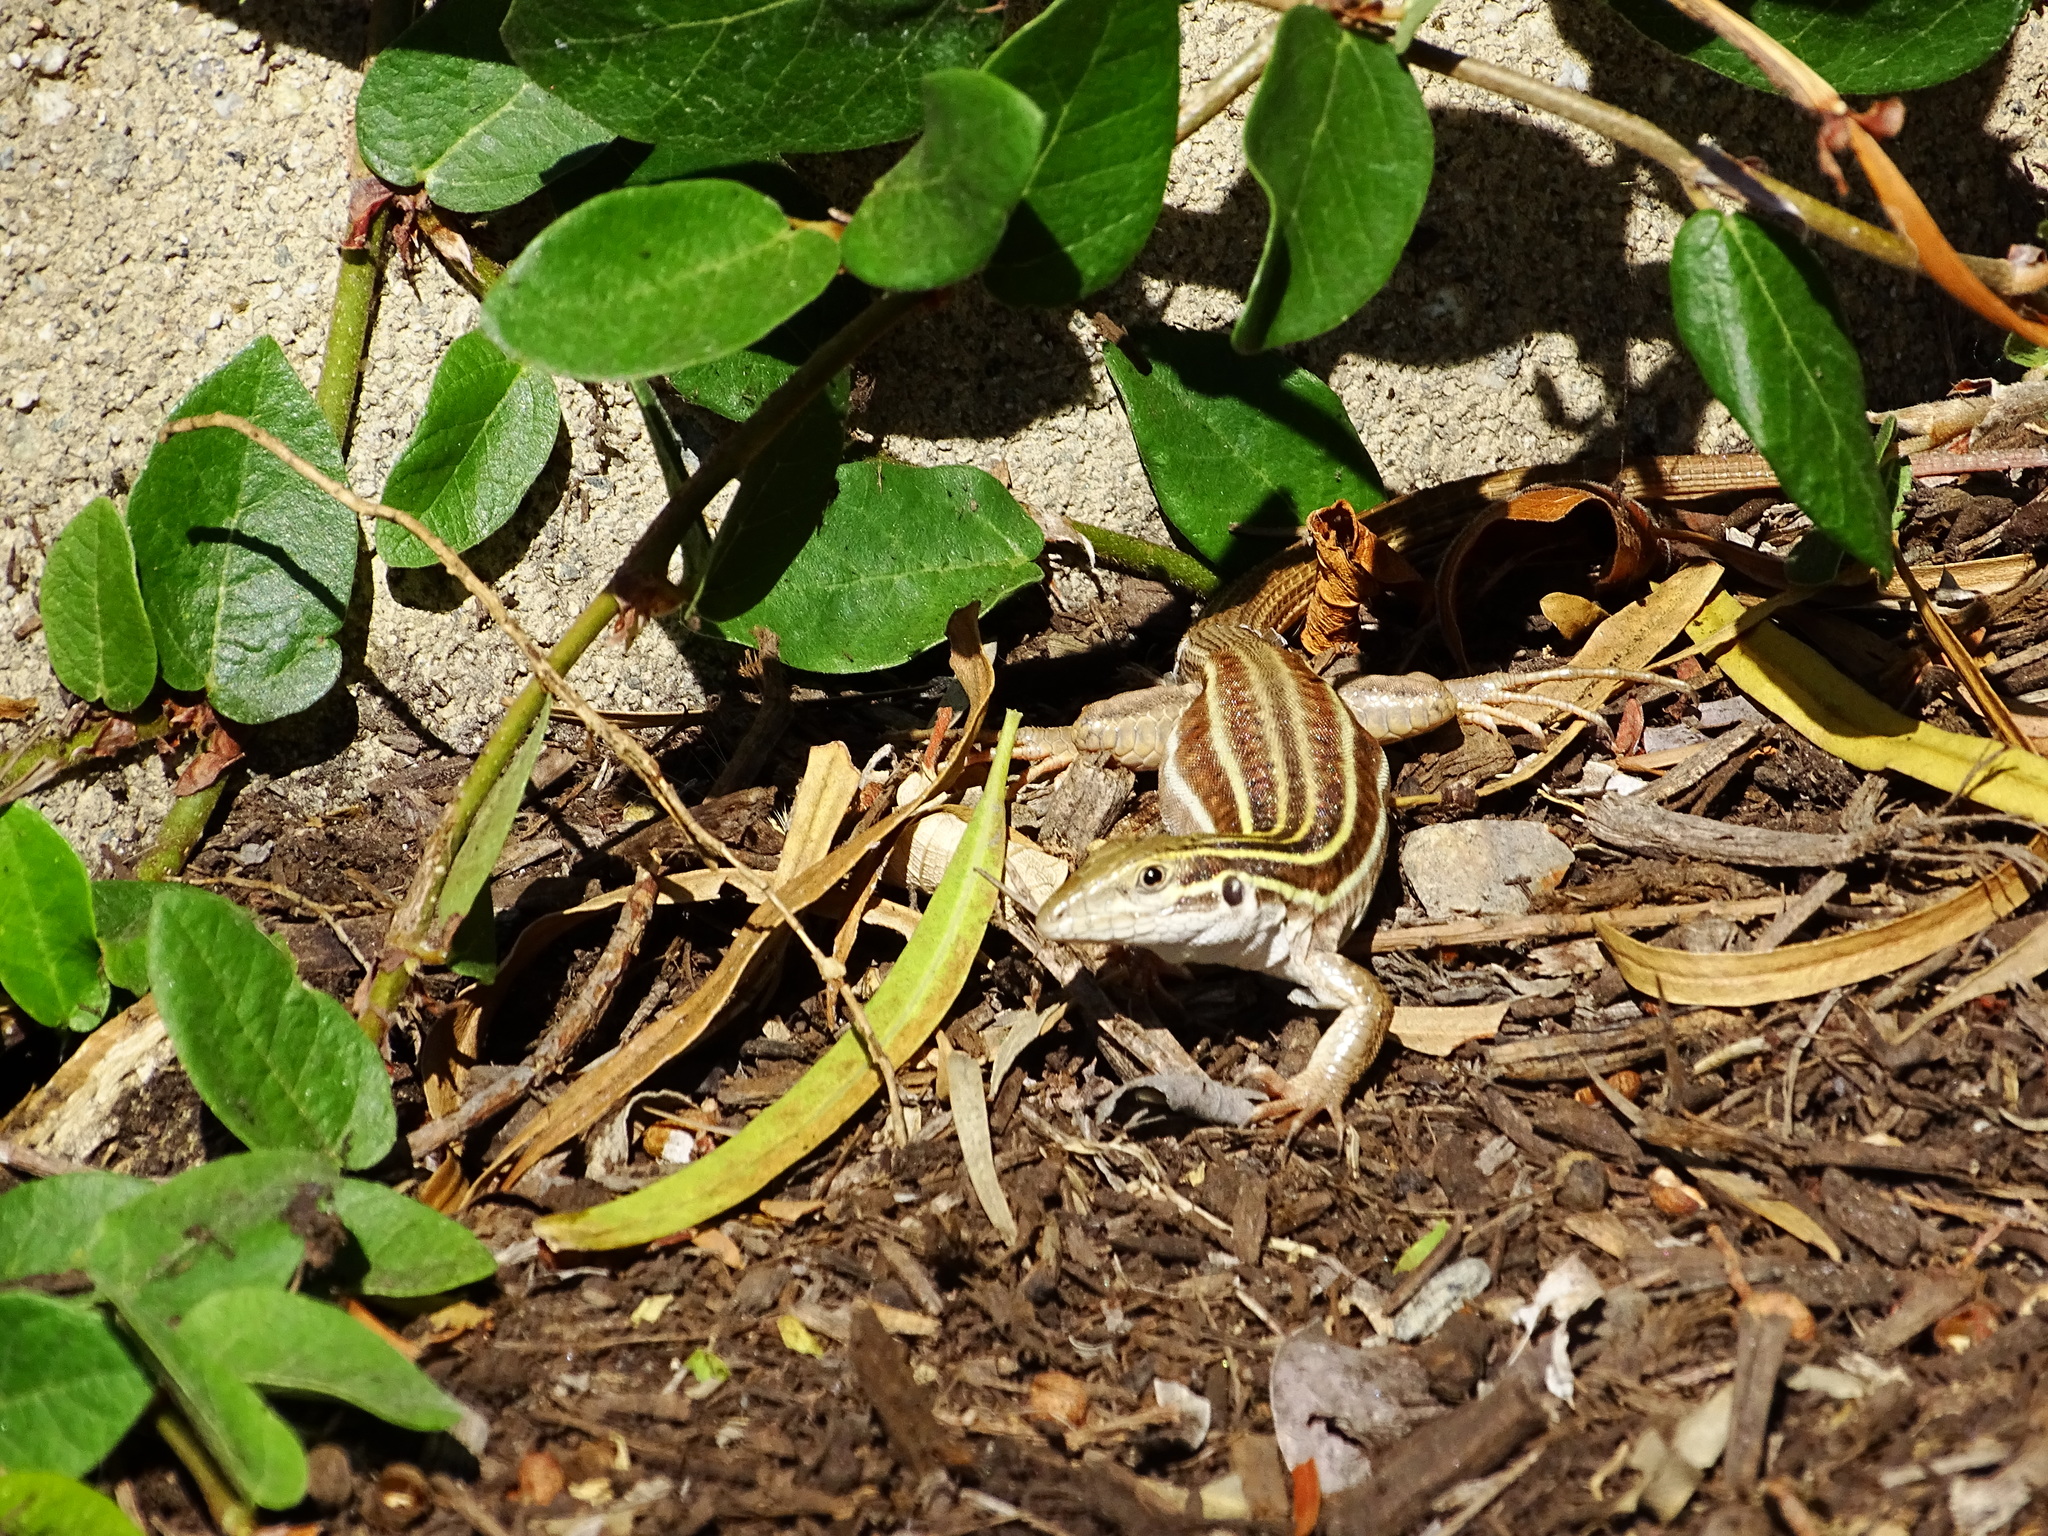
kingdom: Animalia
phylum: Chordata
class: Squamata
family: Teiidae
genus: Aspidoscelis
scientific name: Aspidoscelis sonorae
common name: Sonoran spotted whiptail
